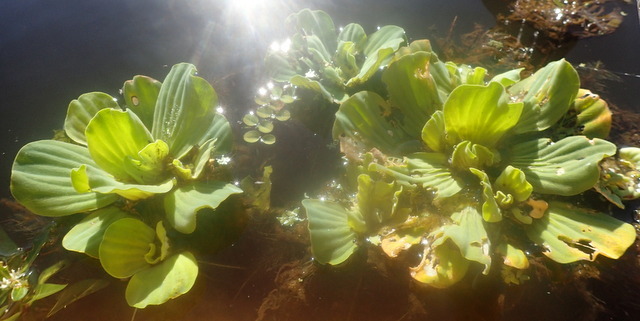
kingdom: Plantae
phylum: Tracheophyta
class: Liliopsida
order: Alismatales
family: Araceae
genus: Pistia
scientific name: Pistia stratiotes
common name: Water lettuce
